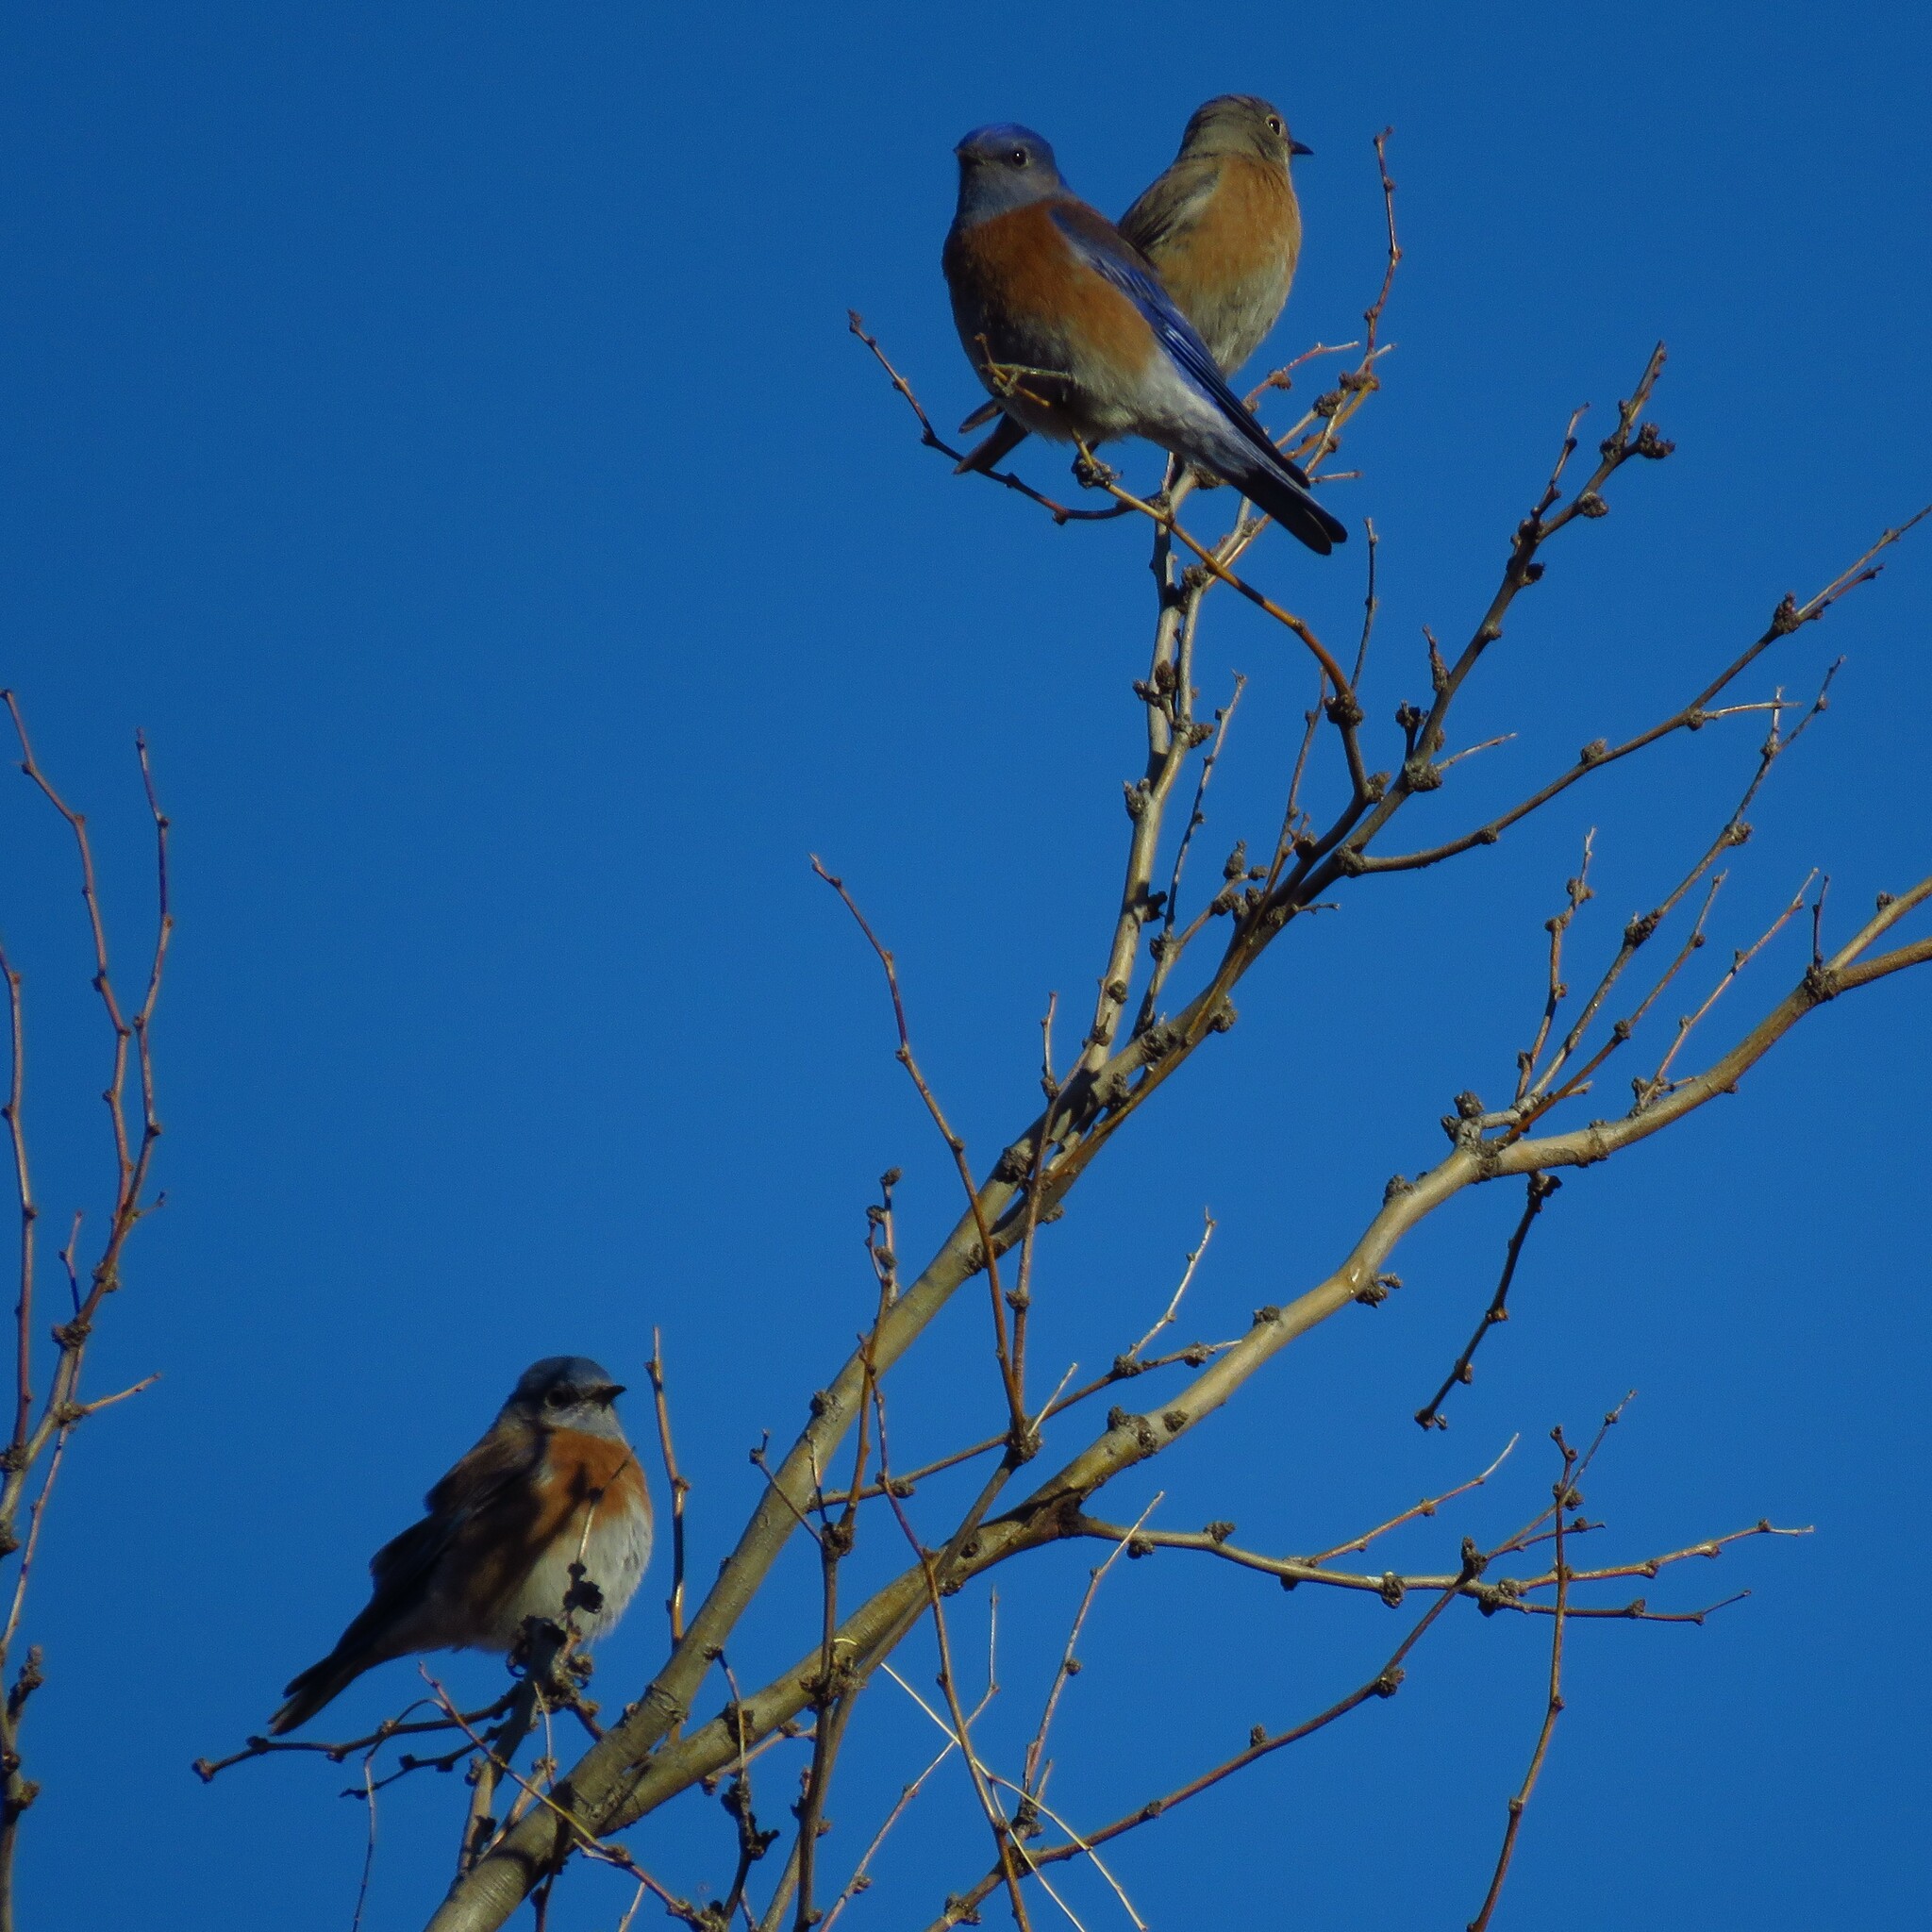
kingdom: Animalia
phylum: Chordata
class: Aves
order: Passeriformes
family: Turdidae
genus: Sialia
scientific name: Sialia mexicana
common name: Western bluebird
